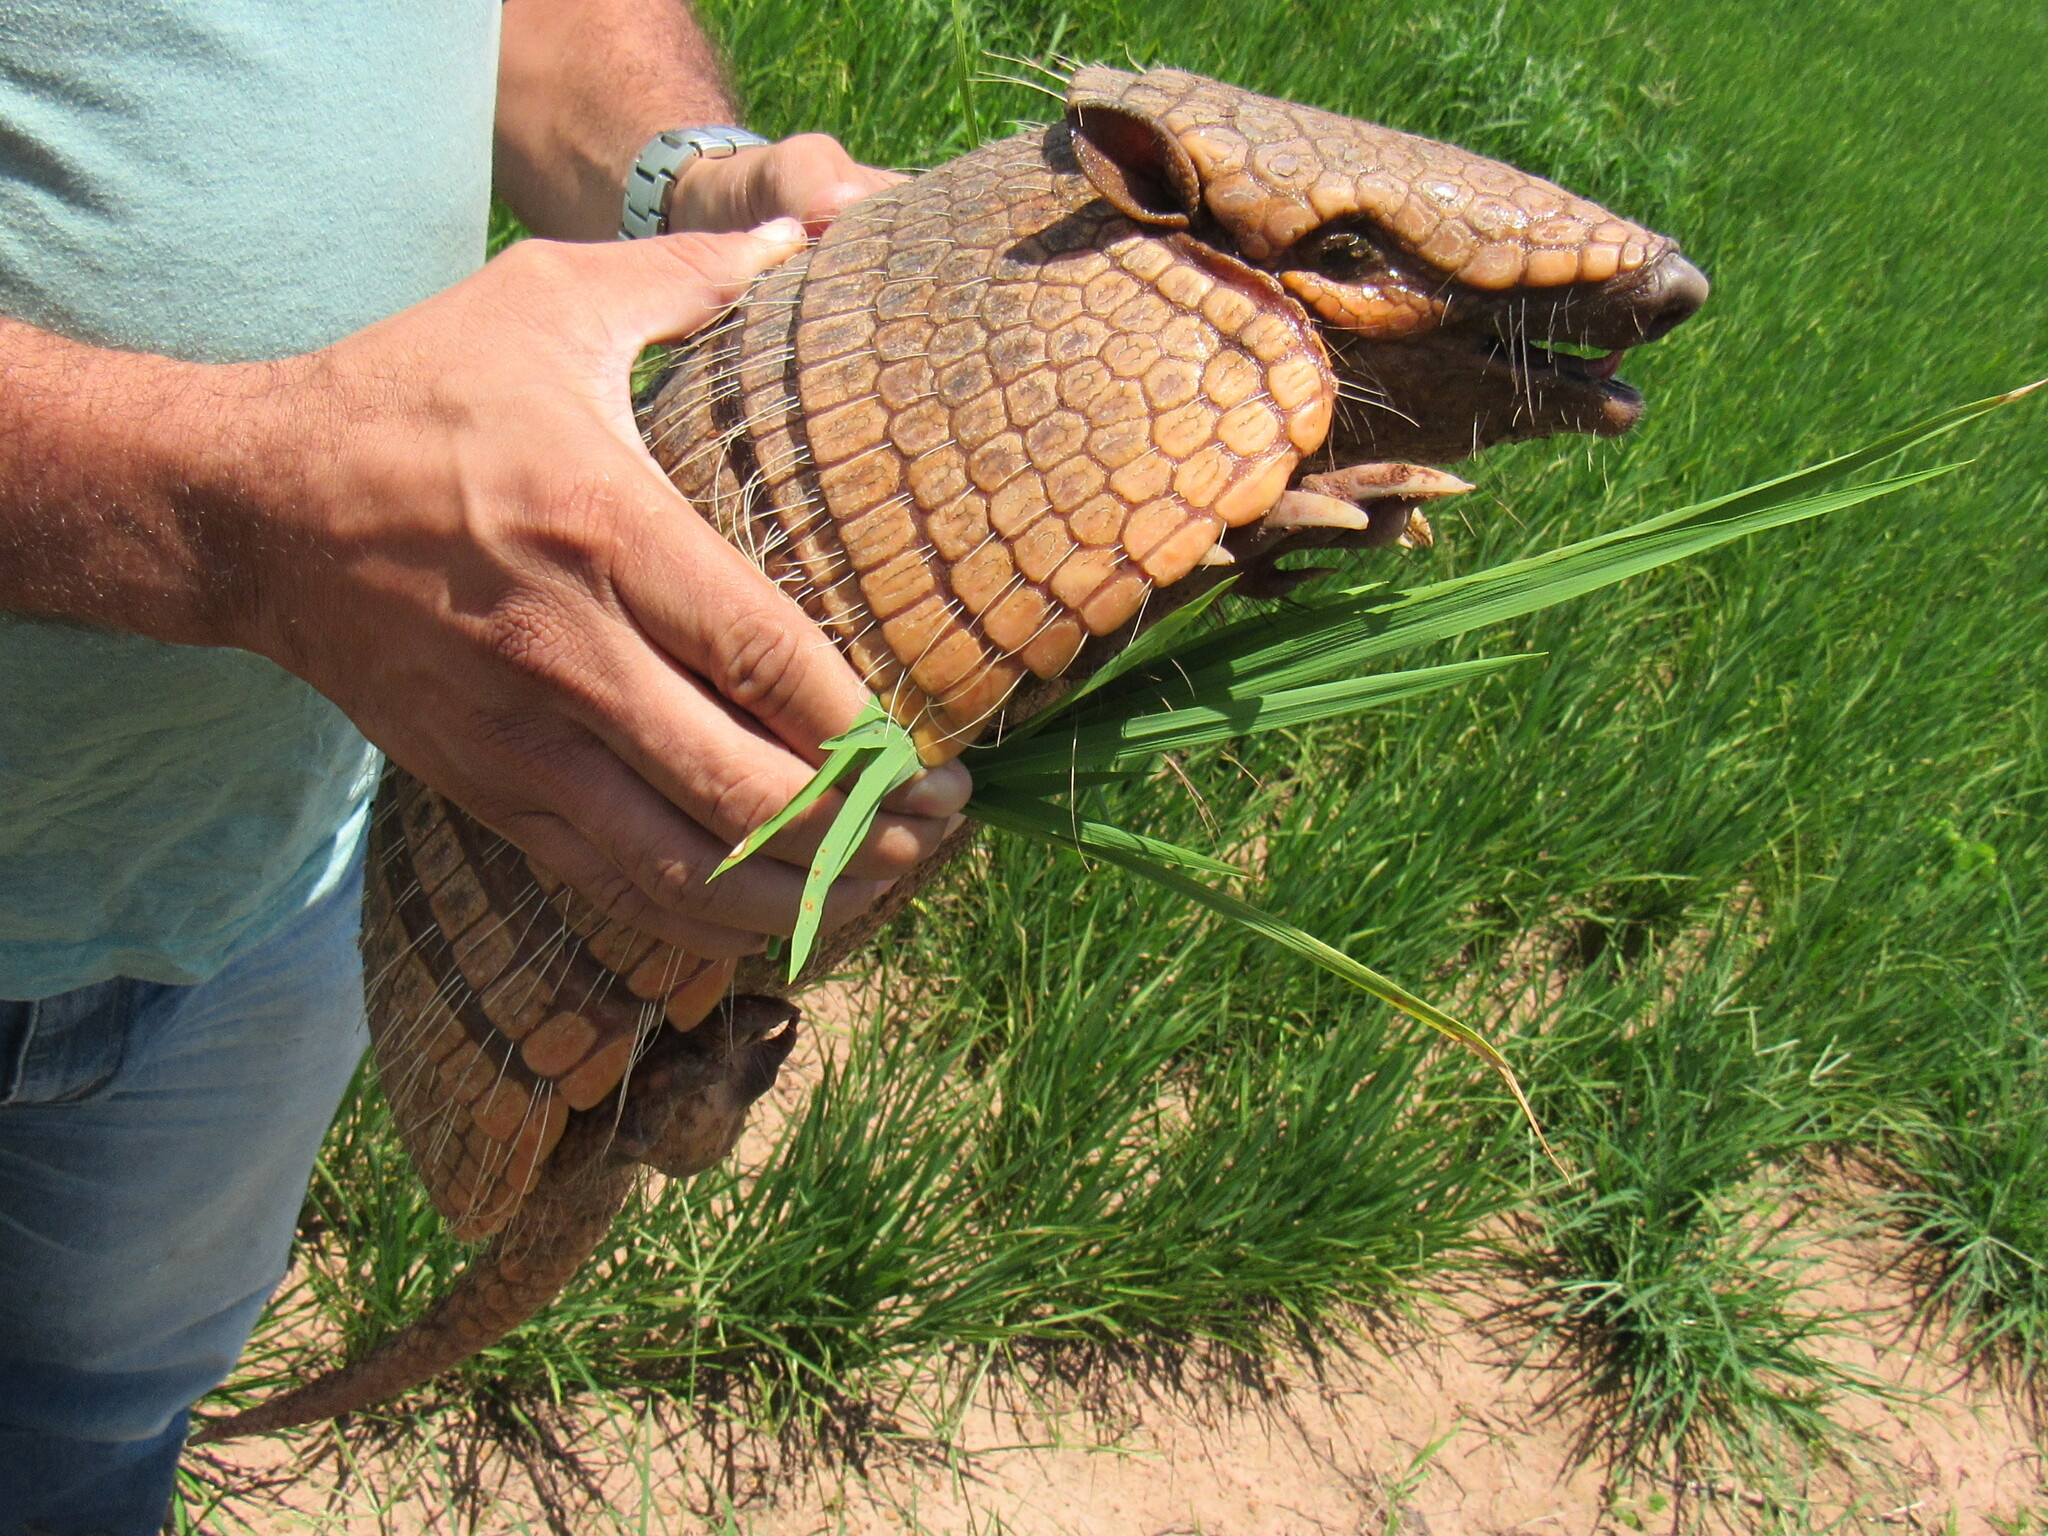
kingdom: Animalia
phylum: Chordata
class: Mammalia
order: Cingulata
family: Dasypodidae
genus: Euphractus
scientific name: Euphractus sexcinctus
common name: Six-banded armadillo
